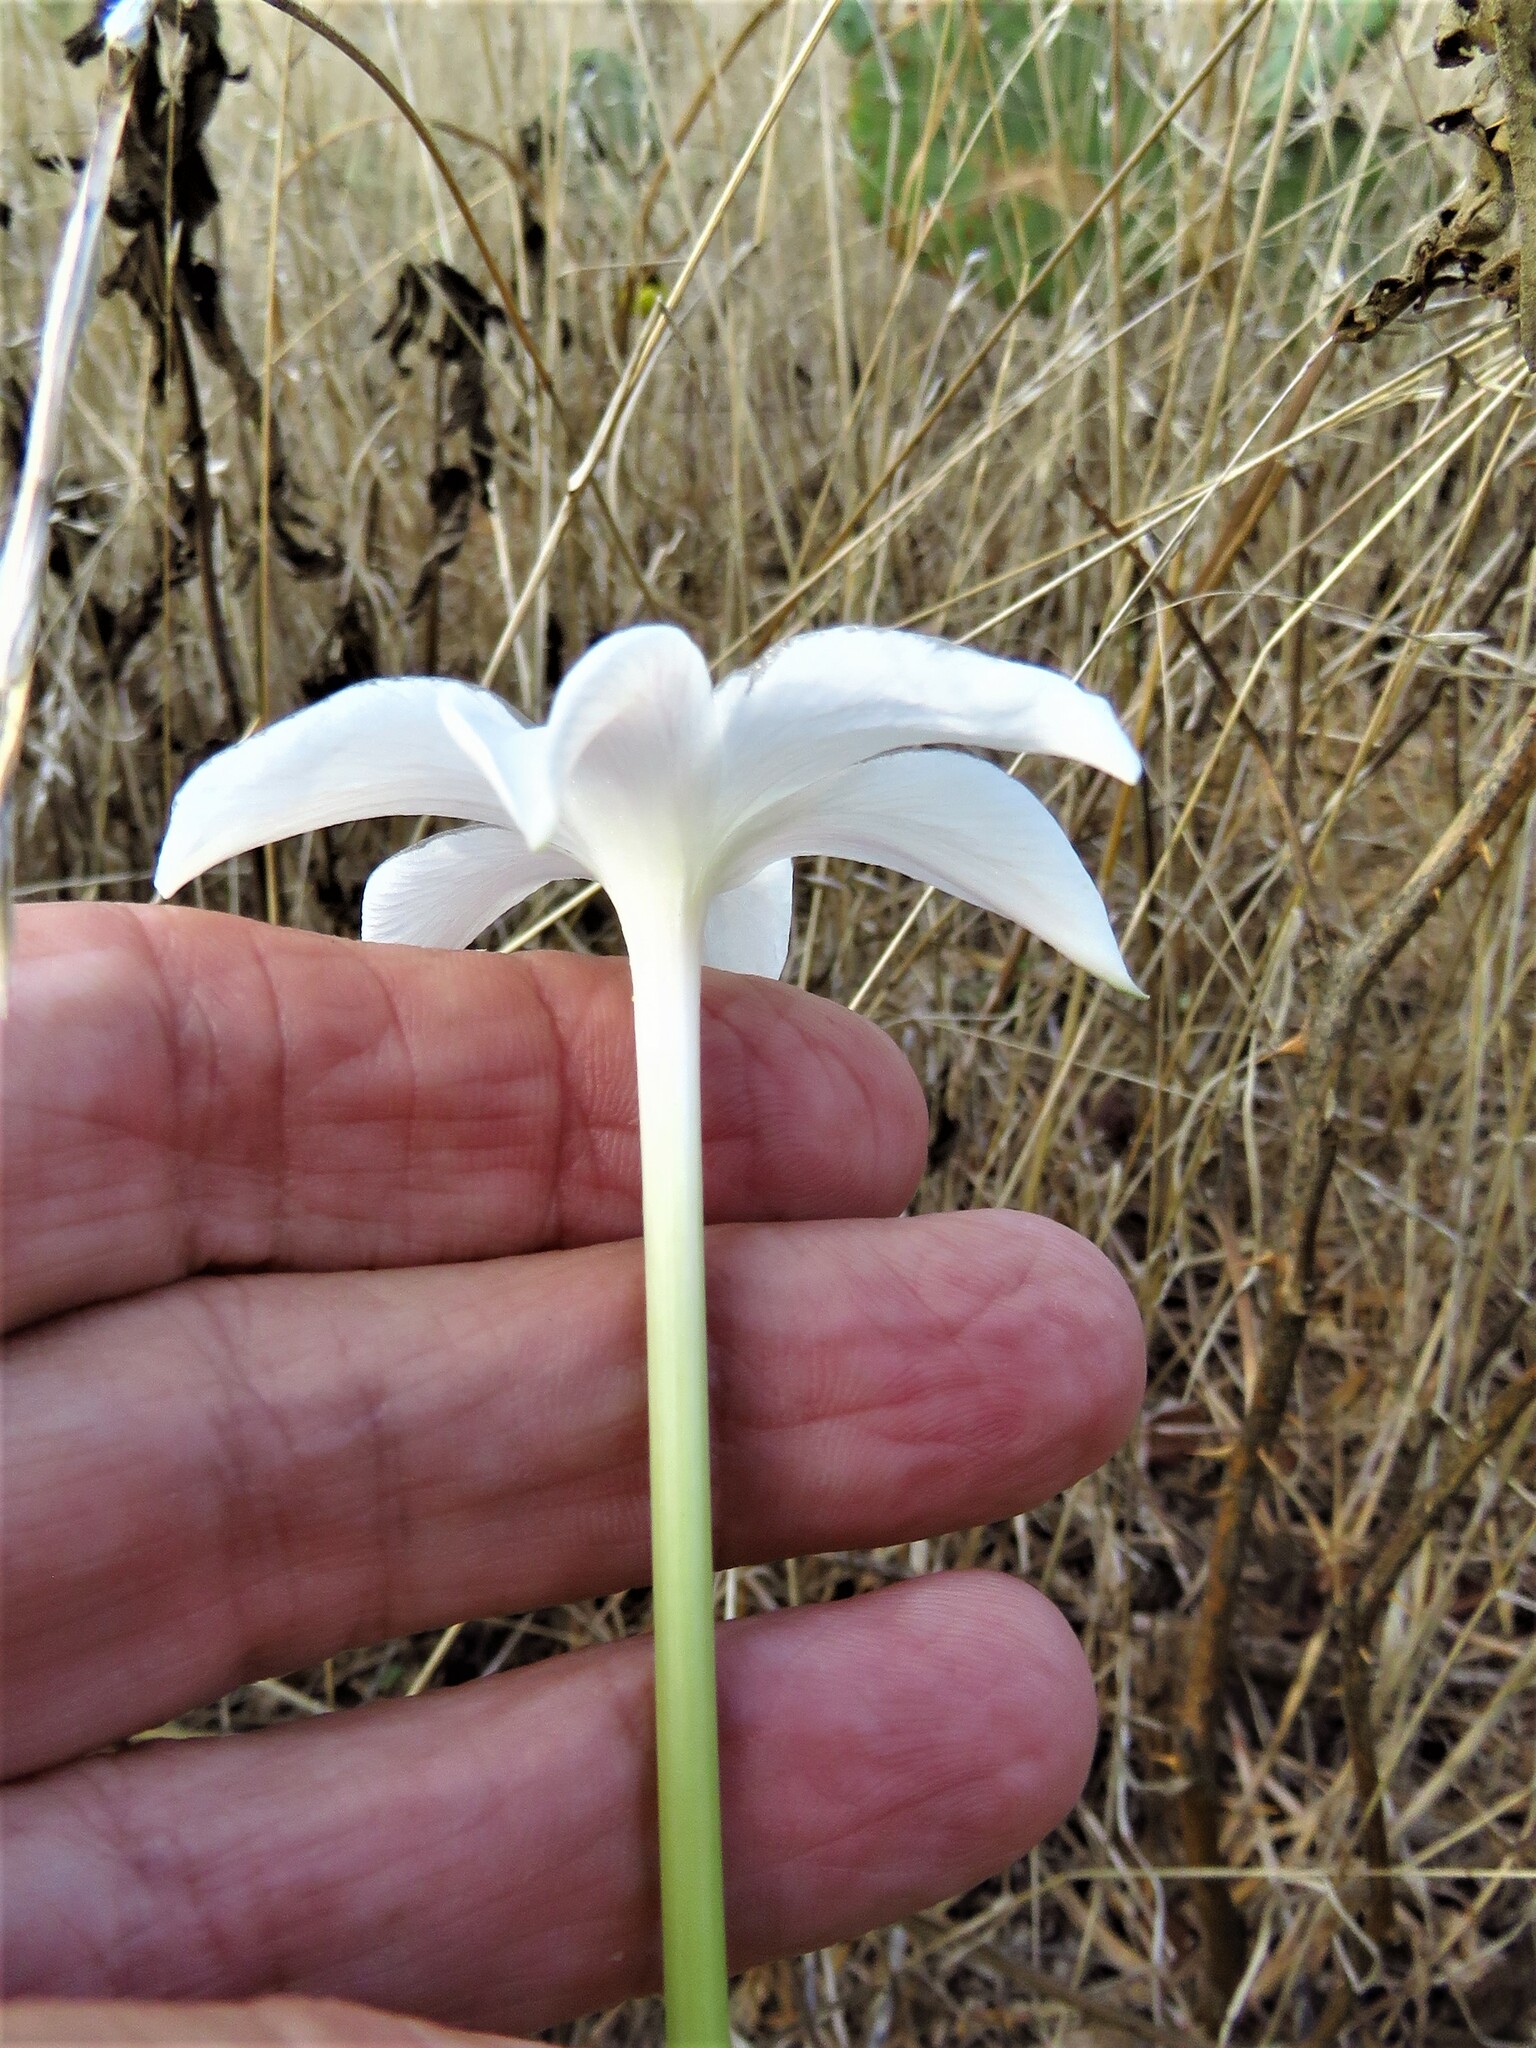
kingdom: Plantae
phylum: Tracheophyta
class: Liliopsida
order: Asparagales
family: Amaryllidaceae
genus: Zephyranthes
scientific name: Zephyranthes chlorosolen
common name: Evening rain-lily
